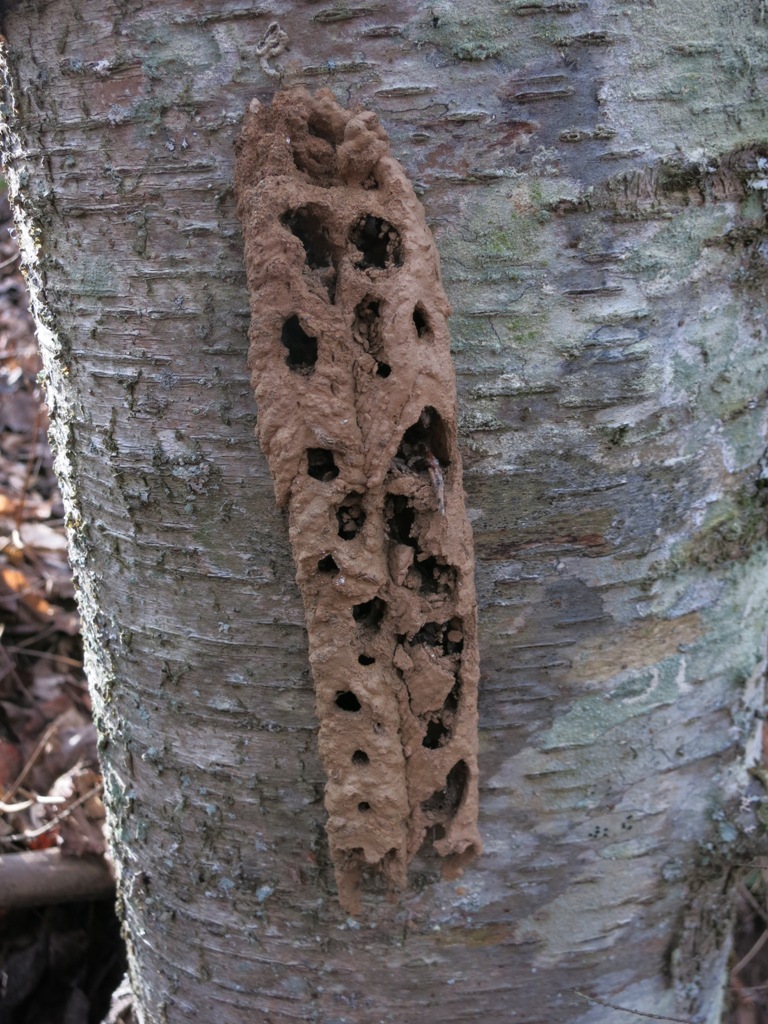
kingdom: Animalia
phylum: Arthropoda
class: Insecta
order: Hymenoptera
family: Crabronidae
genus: Trypoxylon
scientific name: Trypoxylon politum
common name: Organ-pipe mud-dauber wasp
